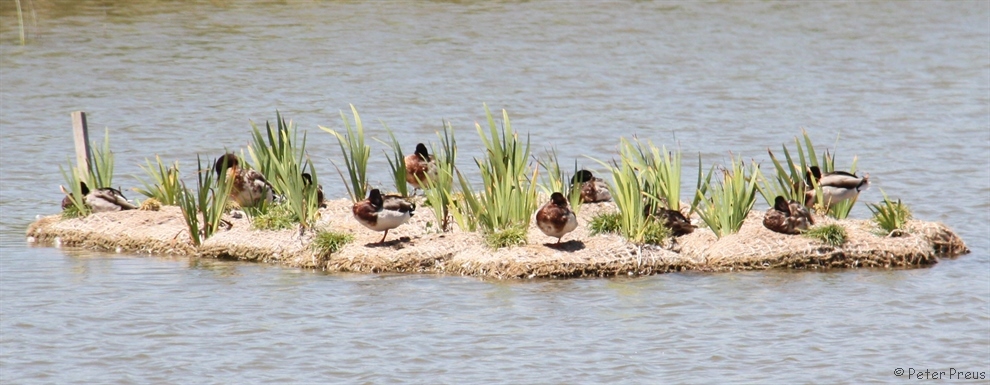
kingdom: Animalia
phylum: Chordata
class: Aves
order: Anseriformes
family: Anatidae
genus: Anas
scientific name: Anas platyrhynchos
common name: Mallard
